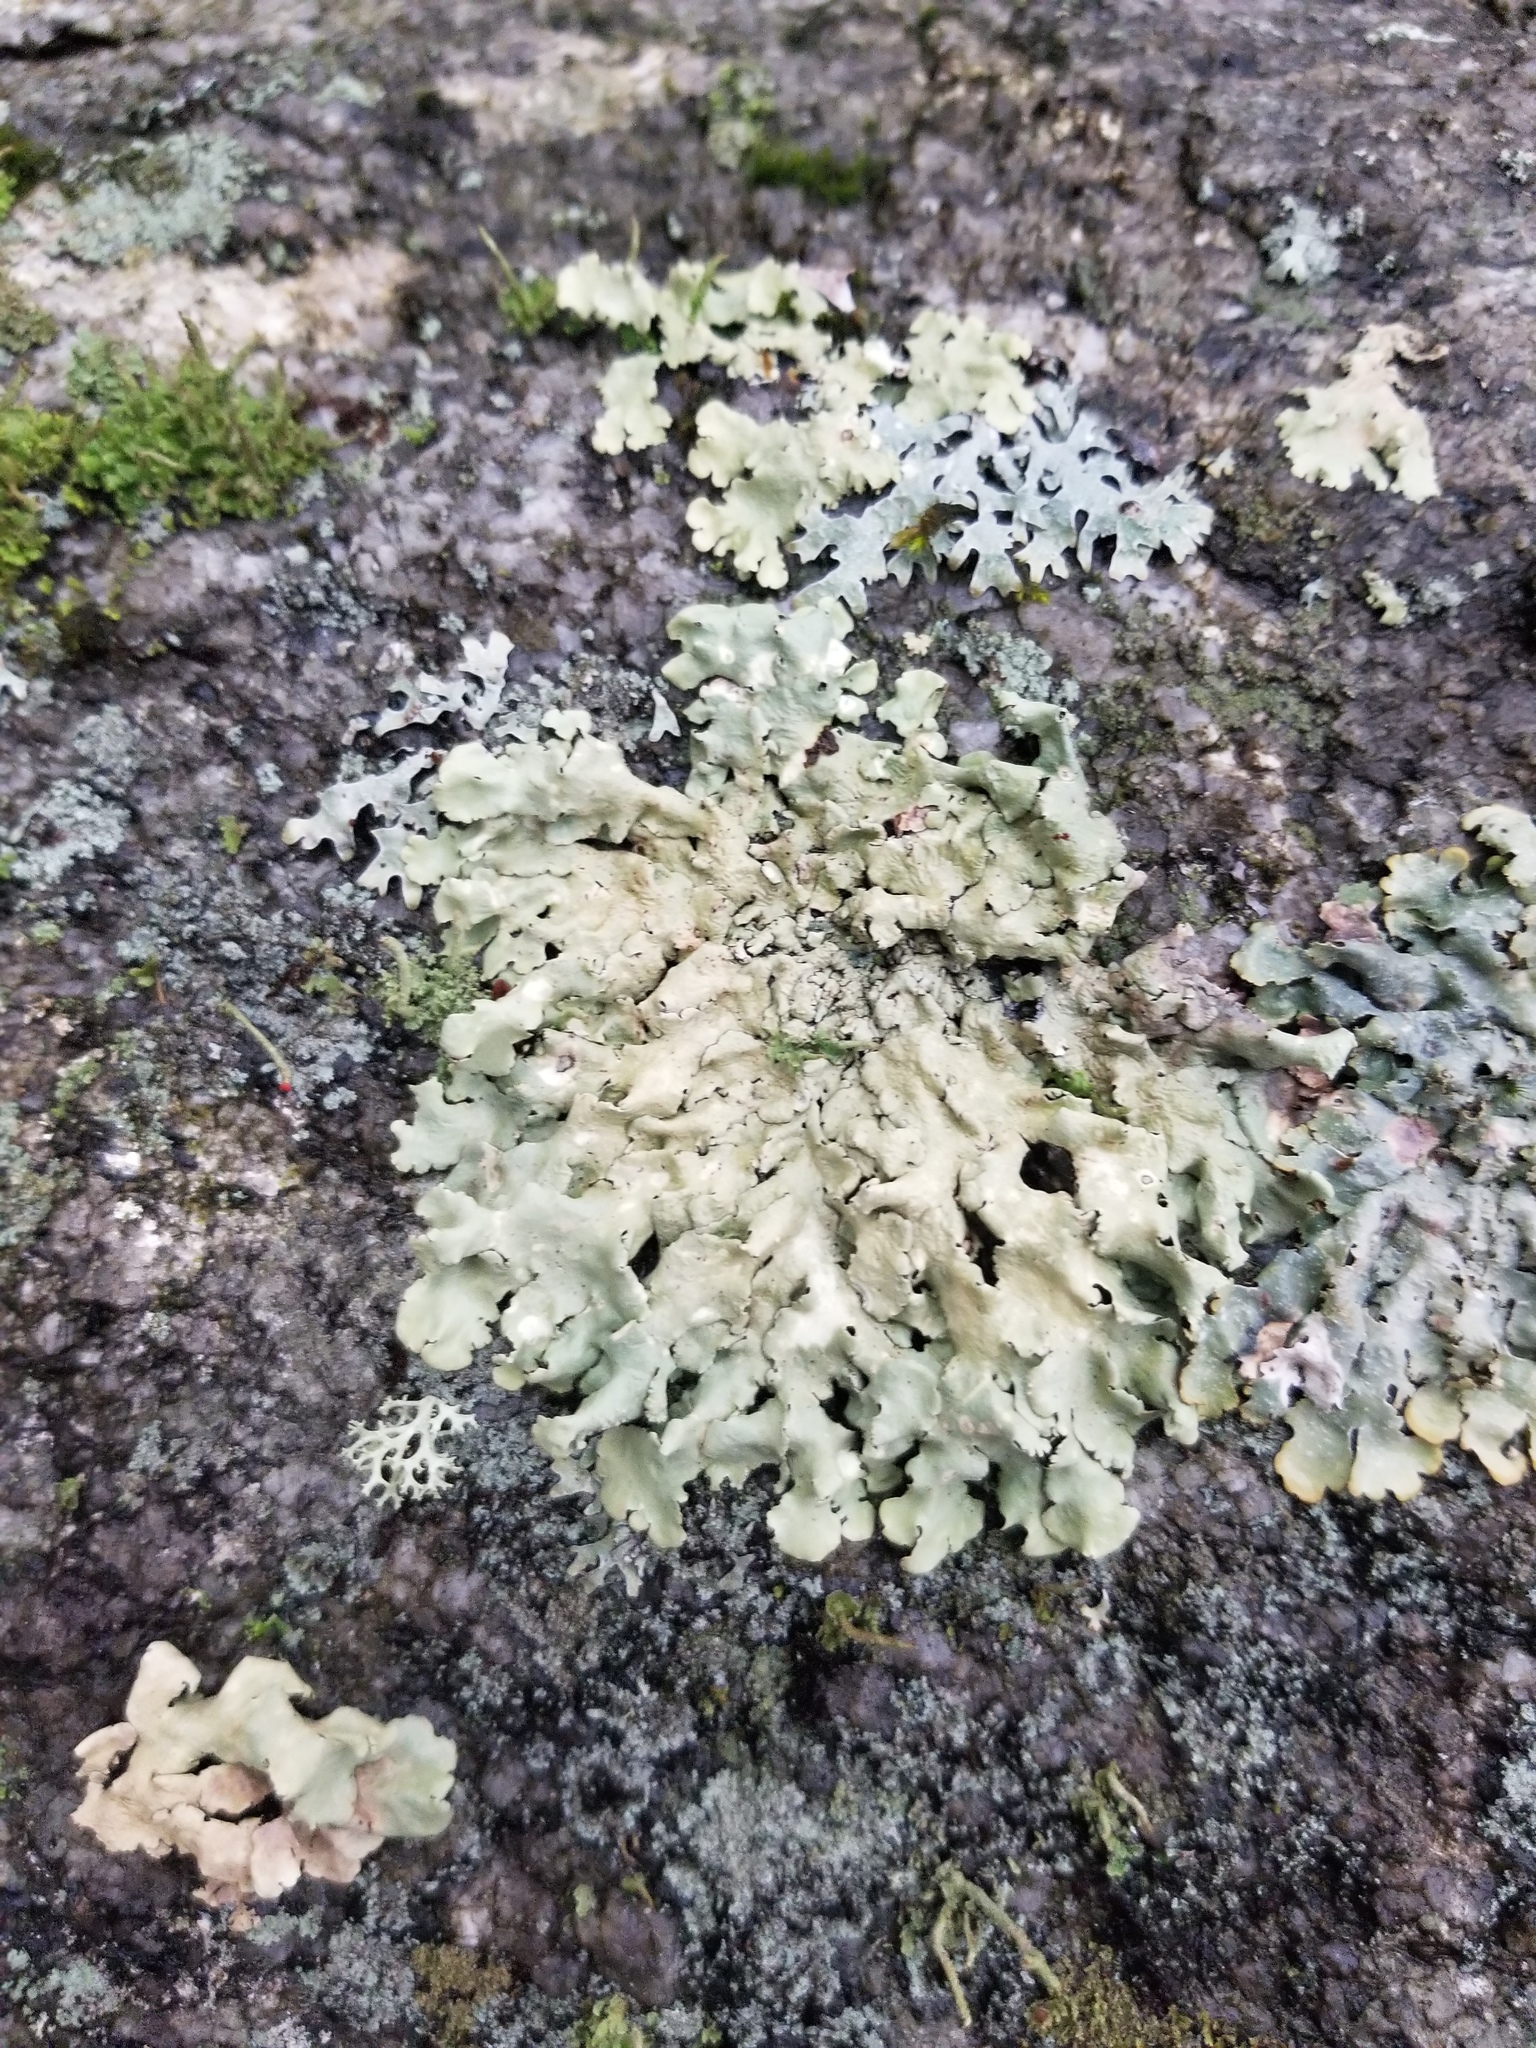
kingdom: Fungi
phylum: Ascomycota
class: Lecanoromycetes
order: Lecanorales
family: Parmeliaceae
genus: Flavoparmelia
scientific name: Flavoparmelia caperata
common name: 40-mile per hour lichen
